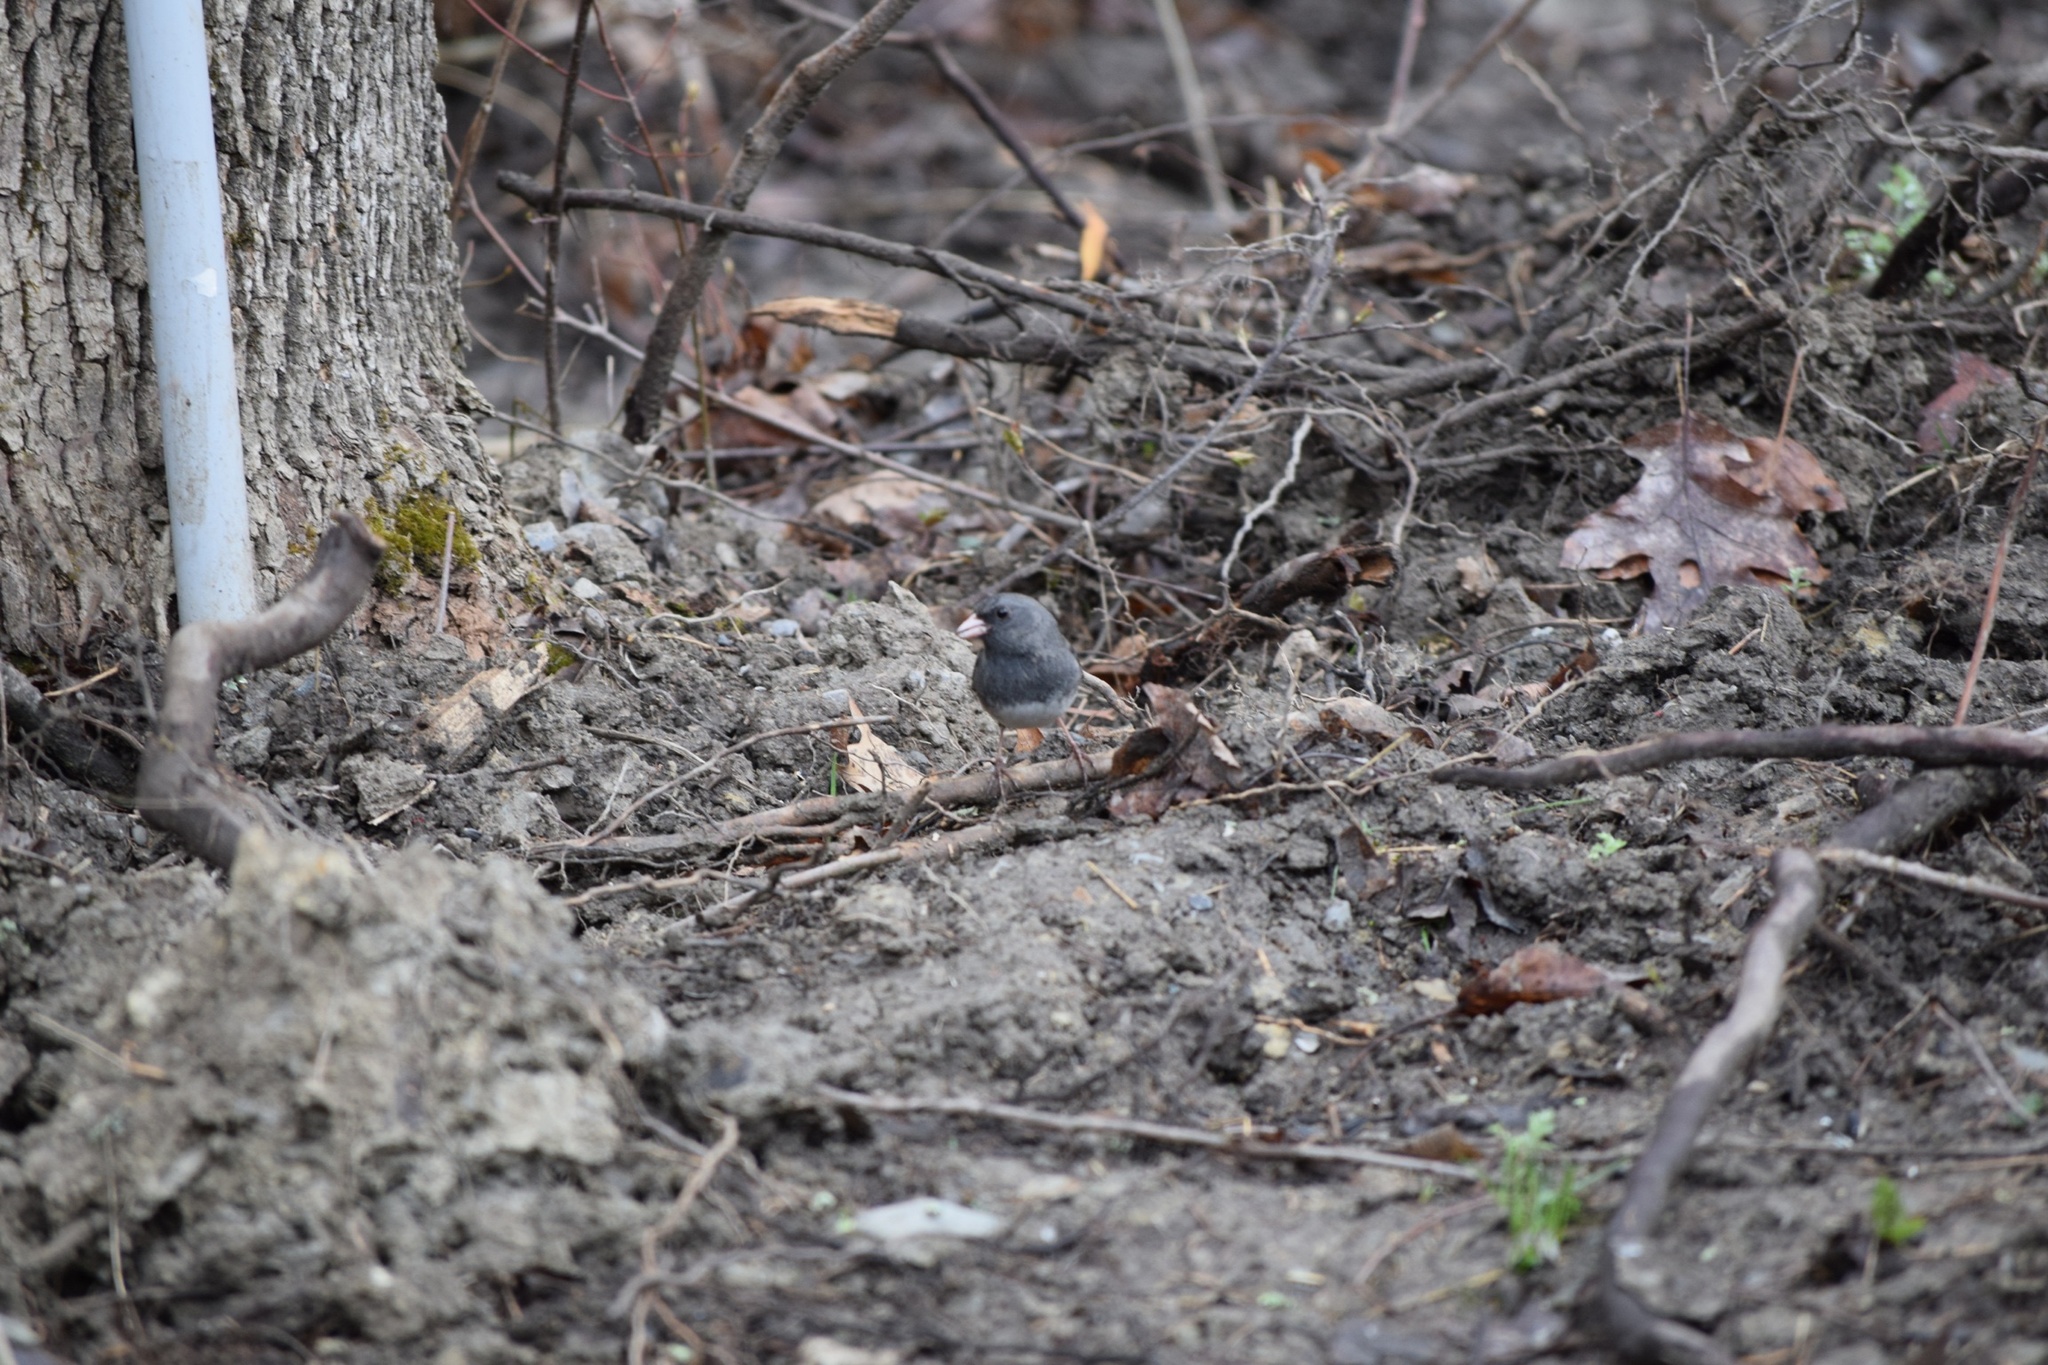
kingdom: Animalia
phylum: Chordata
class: Aves
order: Passeriformes
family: Passerellidae
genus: Junco
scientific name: Junco hyemalis
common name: Dark-eyed junco
